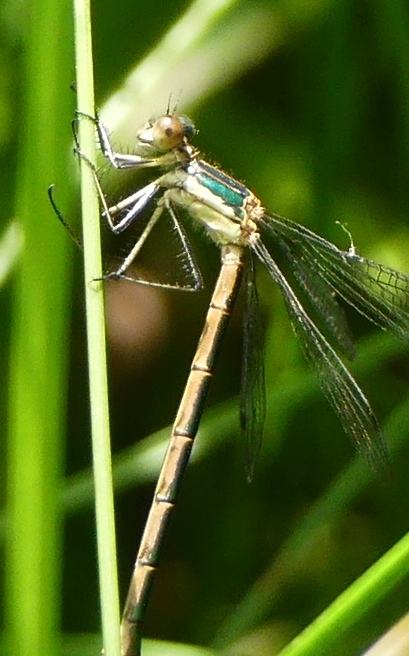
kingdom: Animalia
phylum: Arthropoda
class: Insecta
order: Odonata
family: Lestidae
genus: Lestes
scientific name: Lestes dryas
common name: Scarce emerald damselfly
